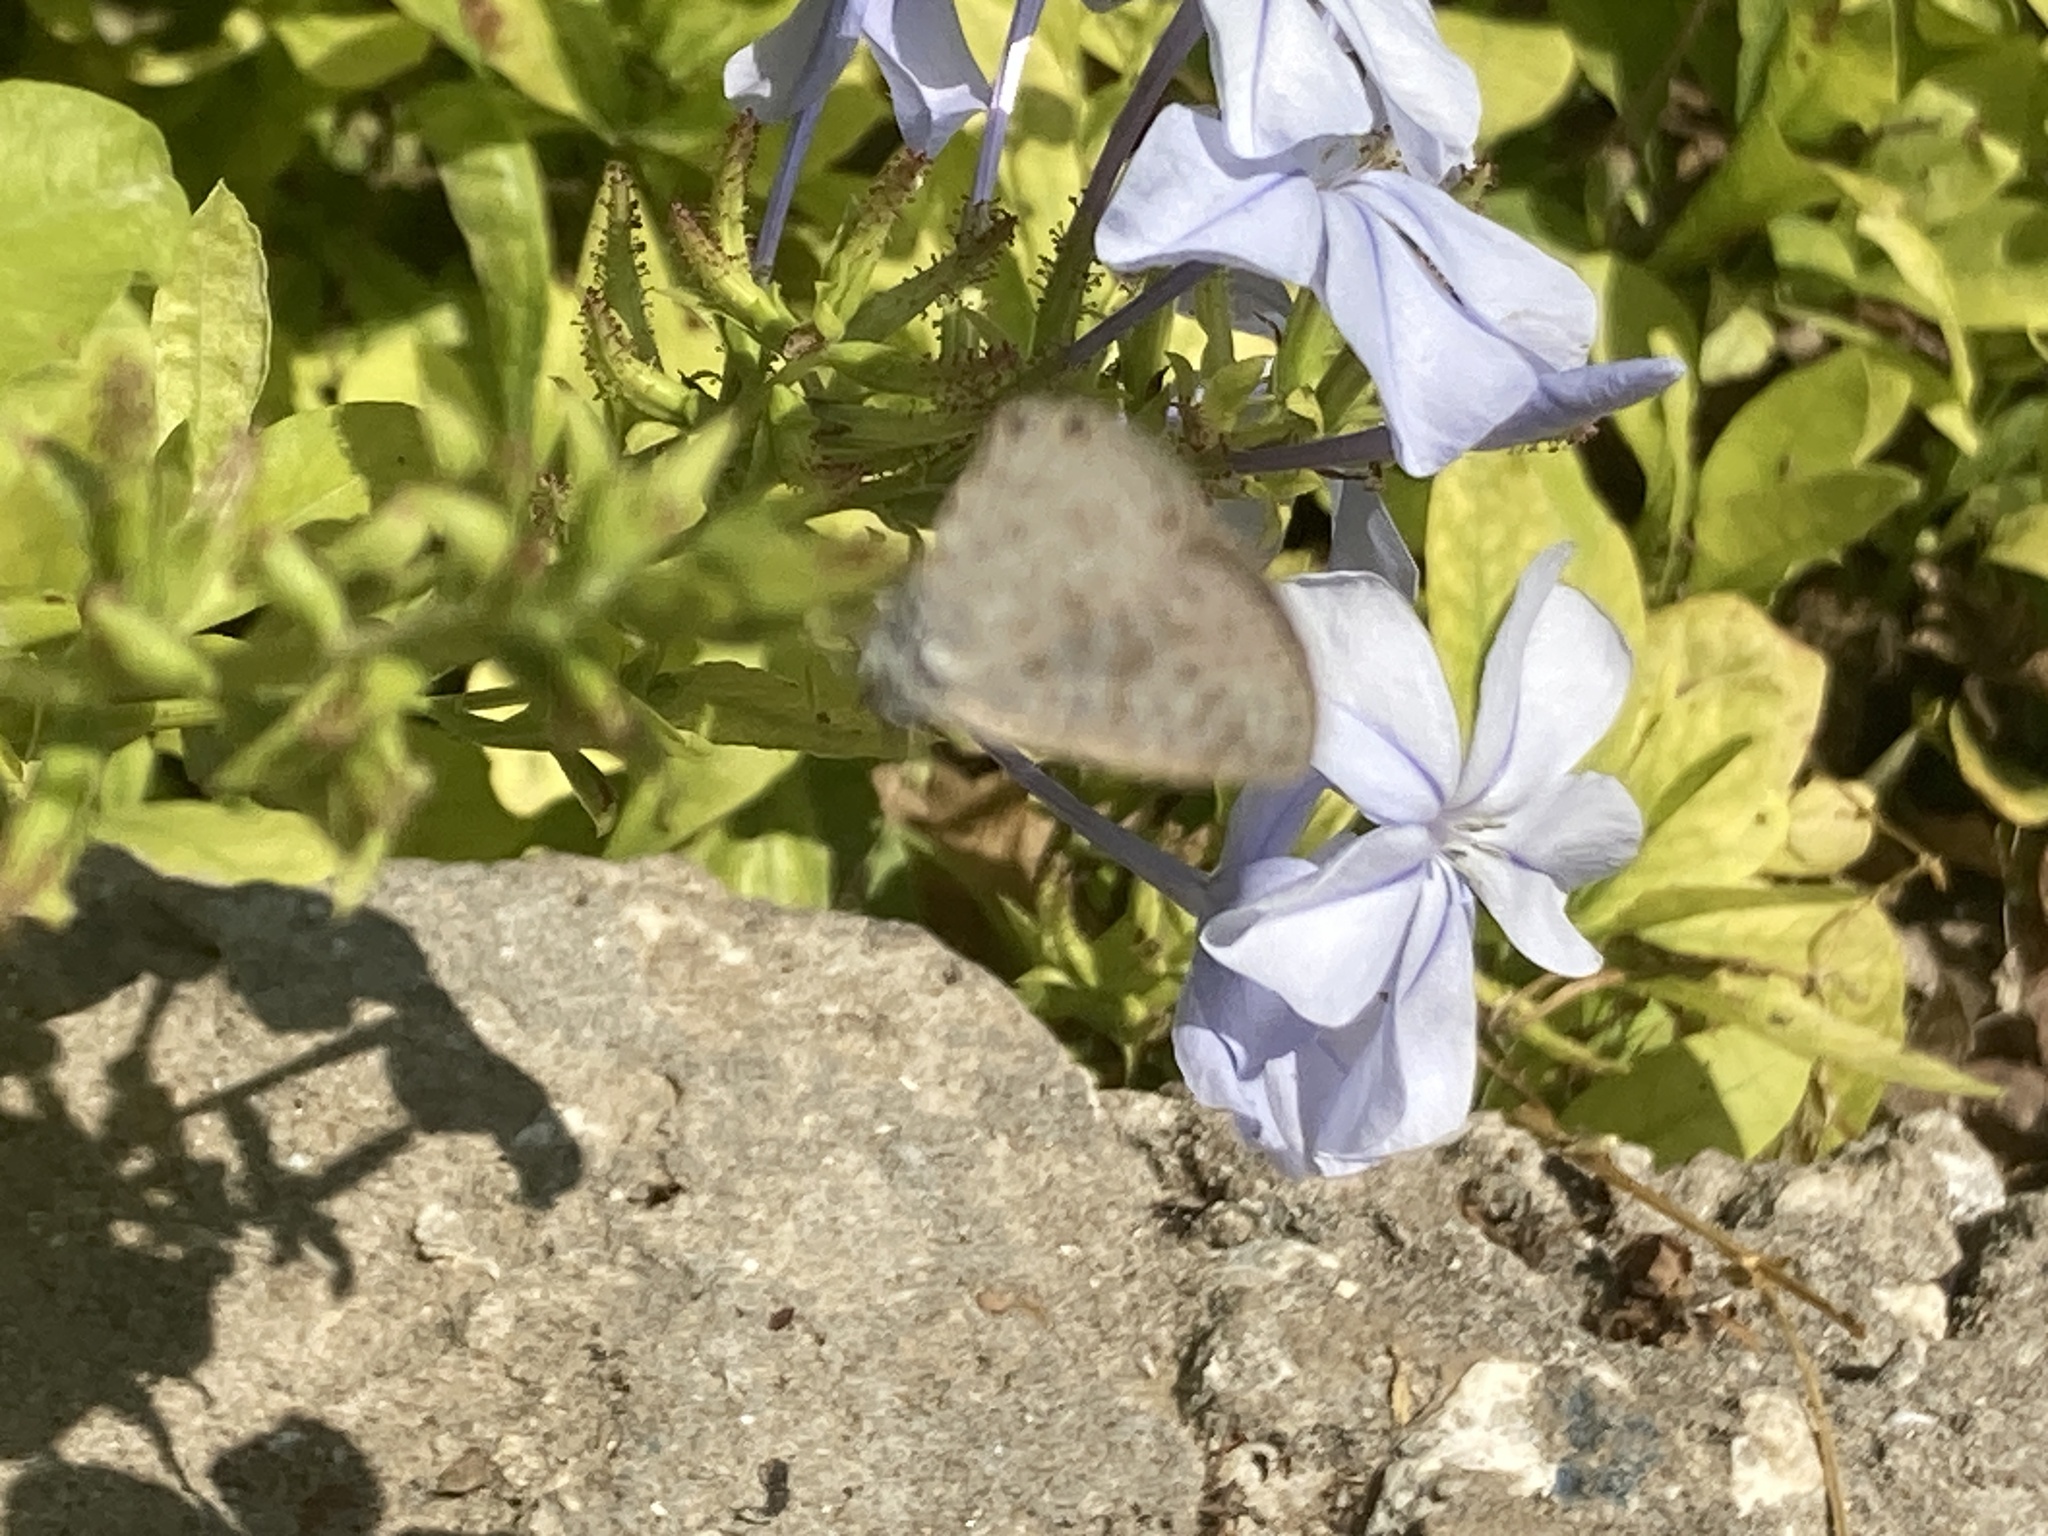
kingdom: Animalia
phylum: Arthropoda
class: Insecta
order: Lepidoptera
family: Lycaenidae
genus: Leptotes
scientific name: Leptotes pirithous
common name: Lang's short-tailed blue
